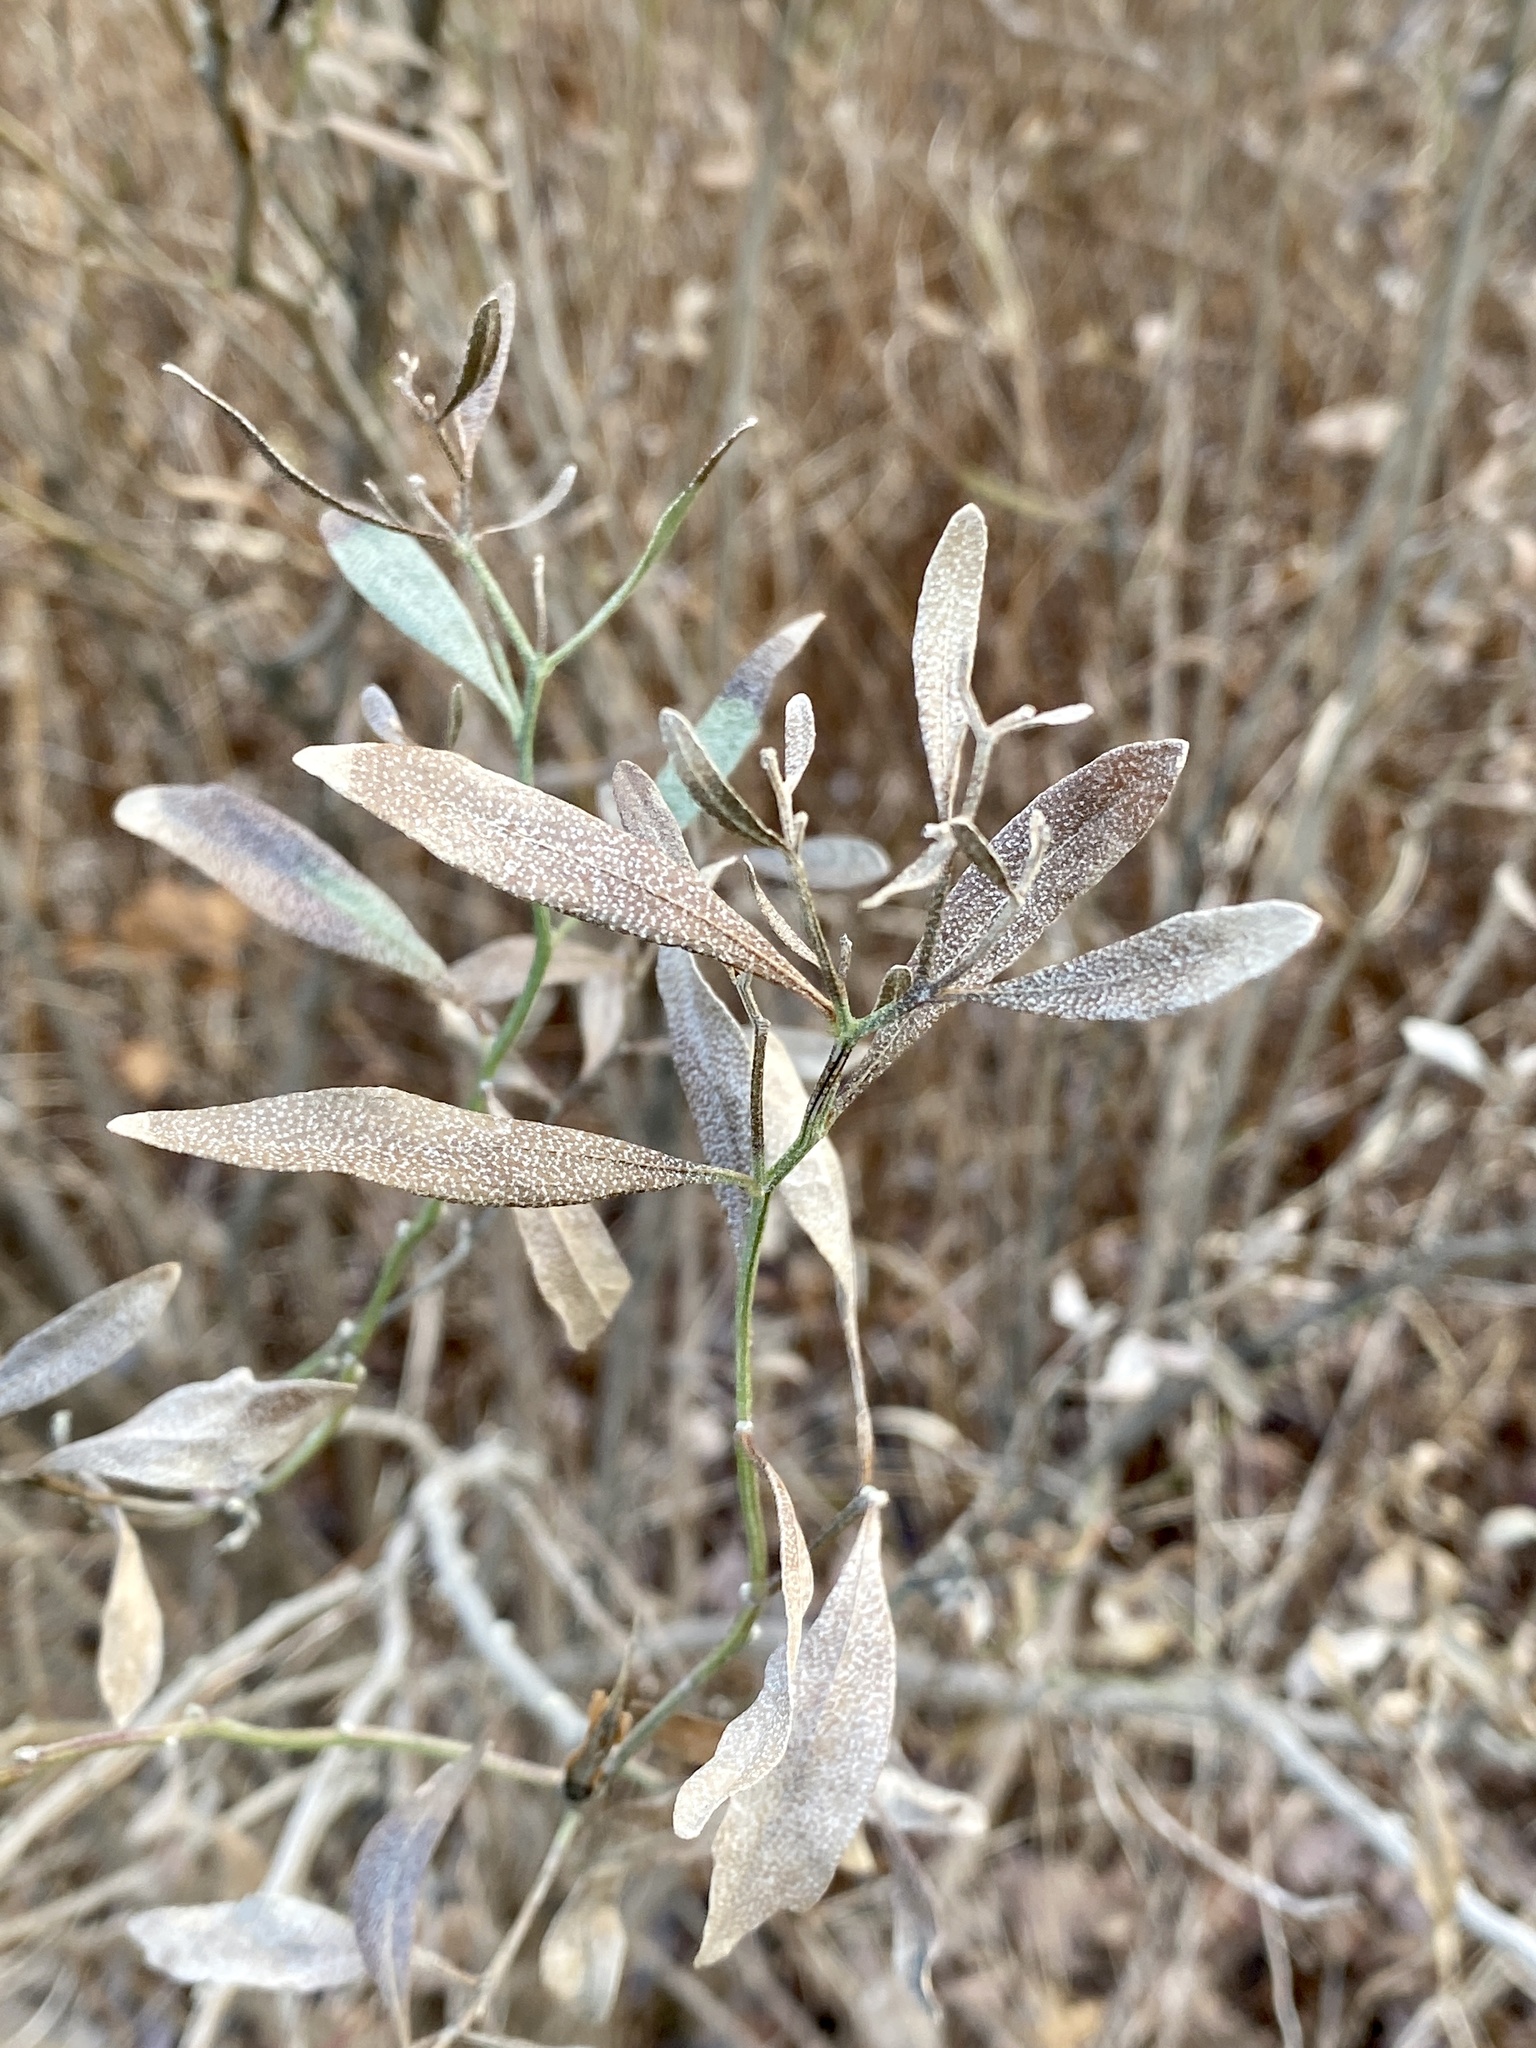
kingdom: Plantae
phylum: Tracheophyta
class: Magnoliopsida
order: Asterales
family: Asteraceae
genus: Baccharis
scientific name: Baccharis halimifolia
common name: Eastern baccharis
